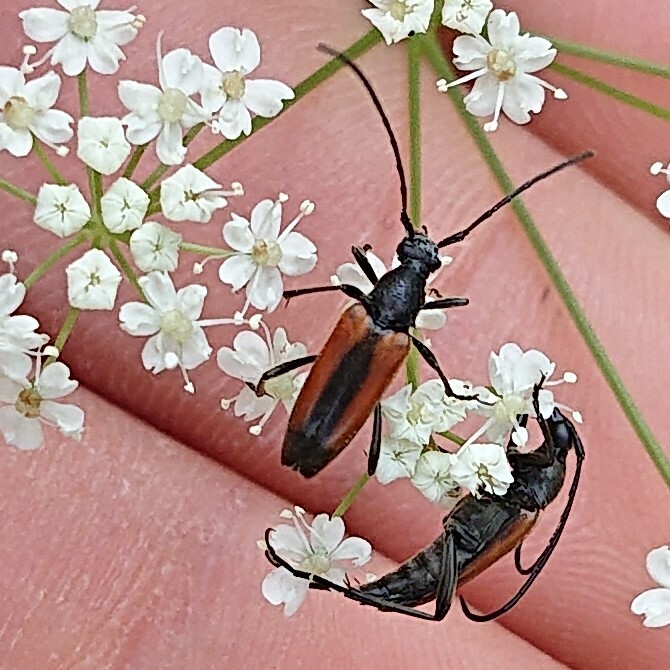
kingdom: Animalia
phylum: Arthropoda
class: Insecta
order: Coleoptera
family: Cerambycidae
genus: Stenurella
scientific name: Stenurella melanura
